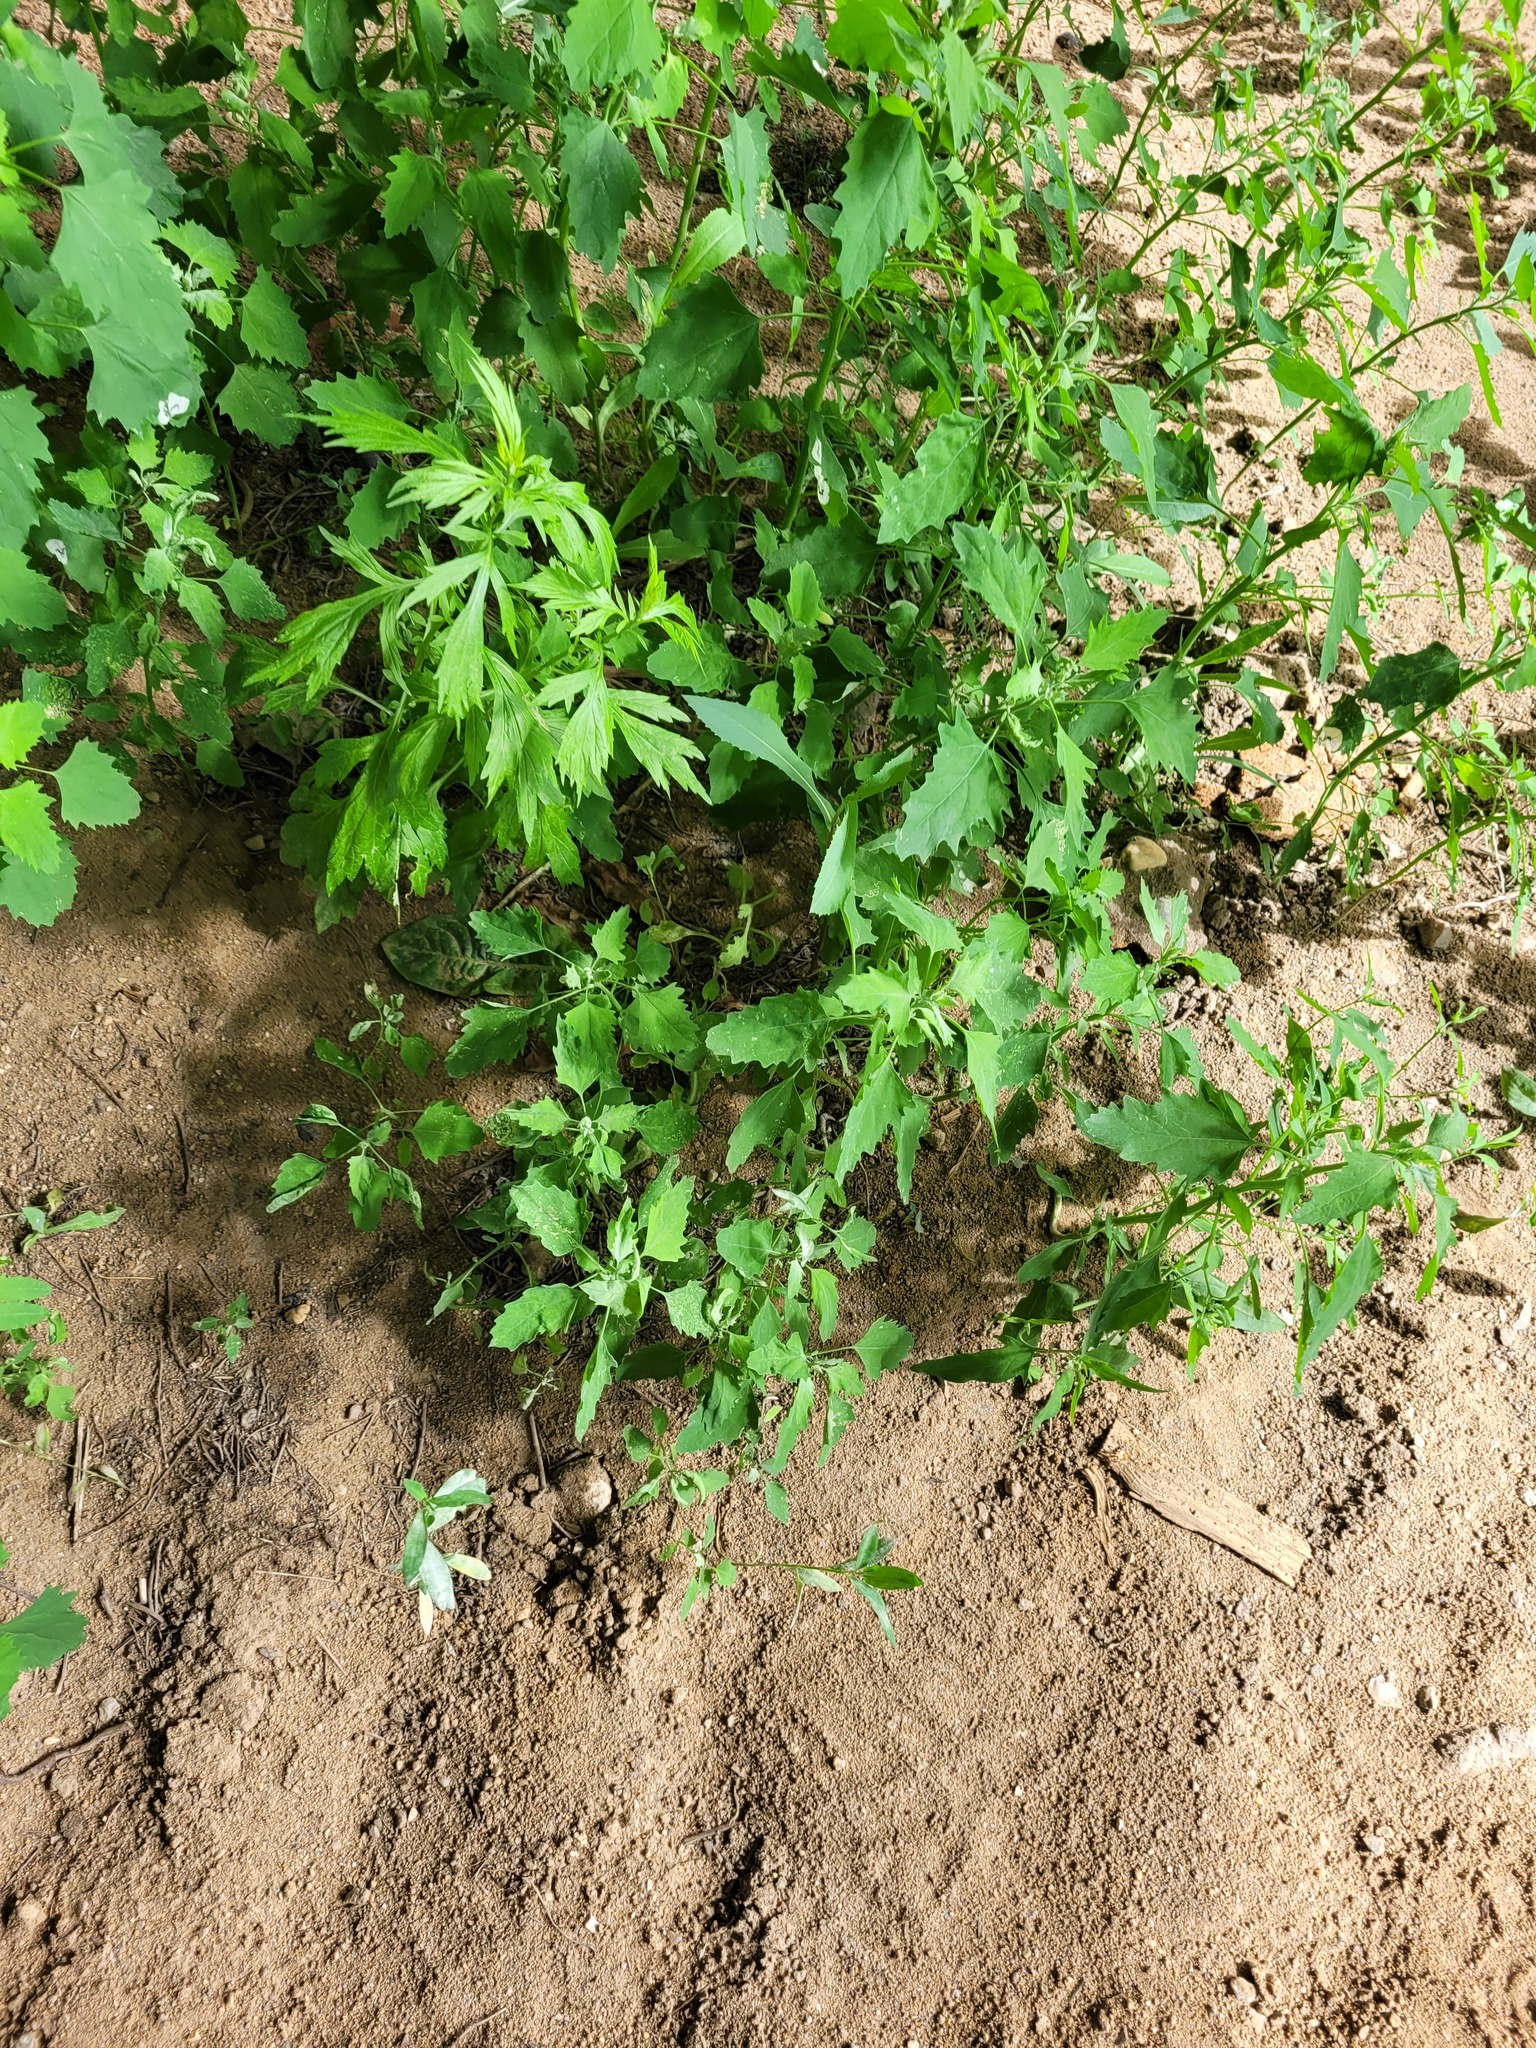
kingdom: Plantae
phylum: Tracheophyta
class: Magnoliopsida
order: Caryophyllales
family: Amaranthaceae
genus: Chenopodium
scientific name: Chenopodium album
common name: Fat-hen
